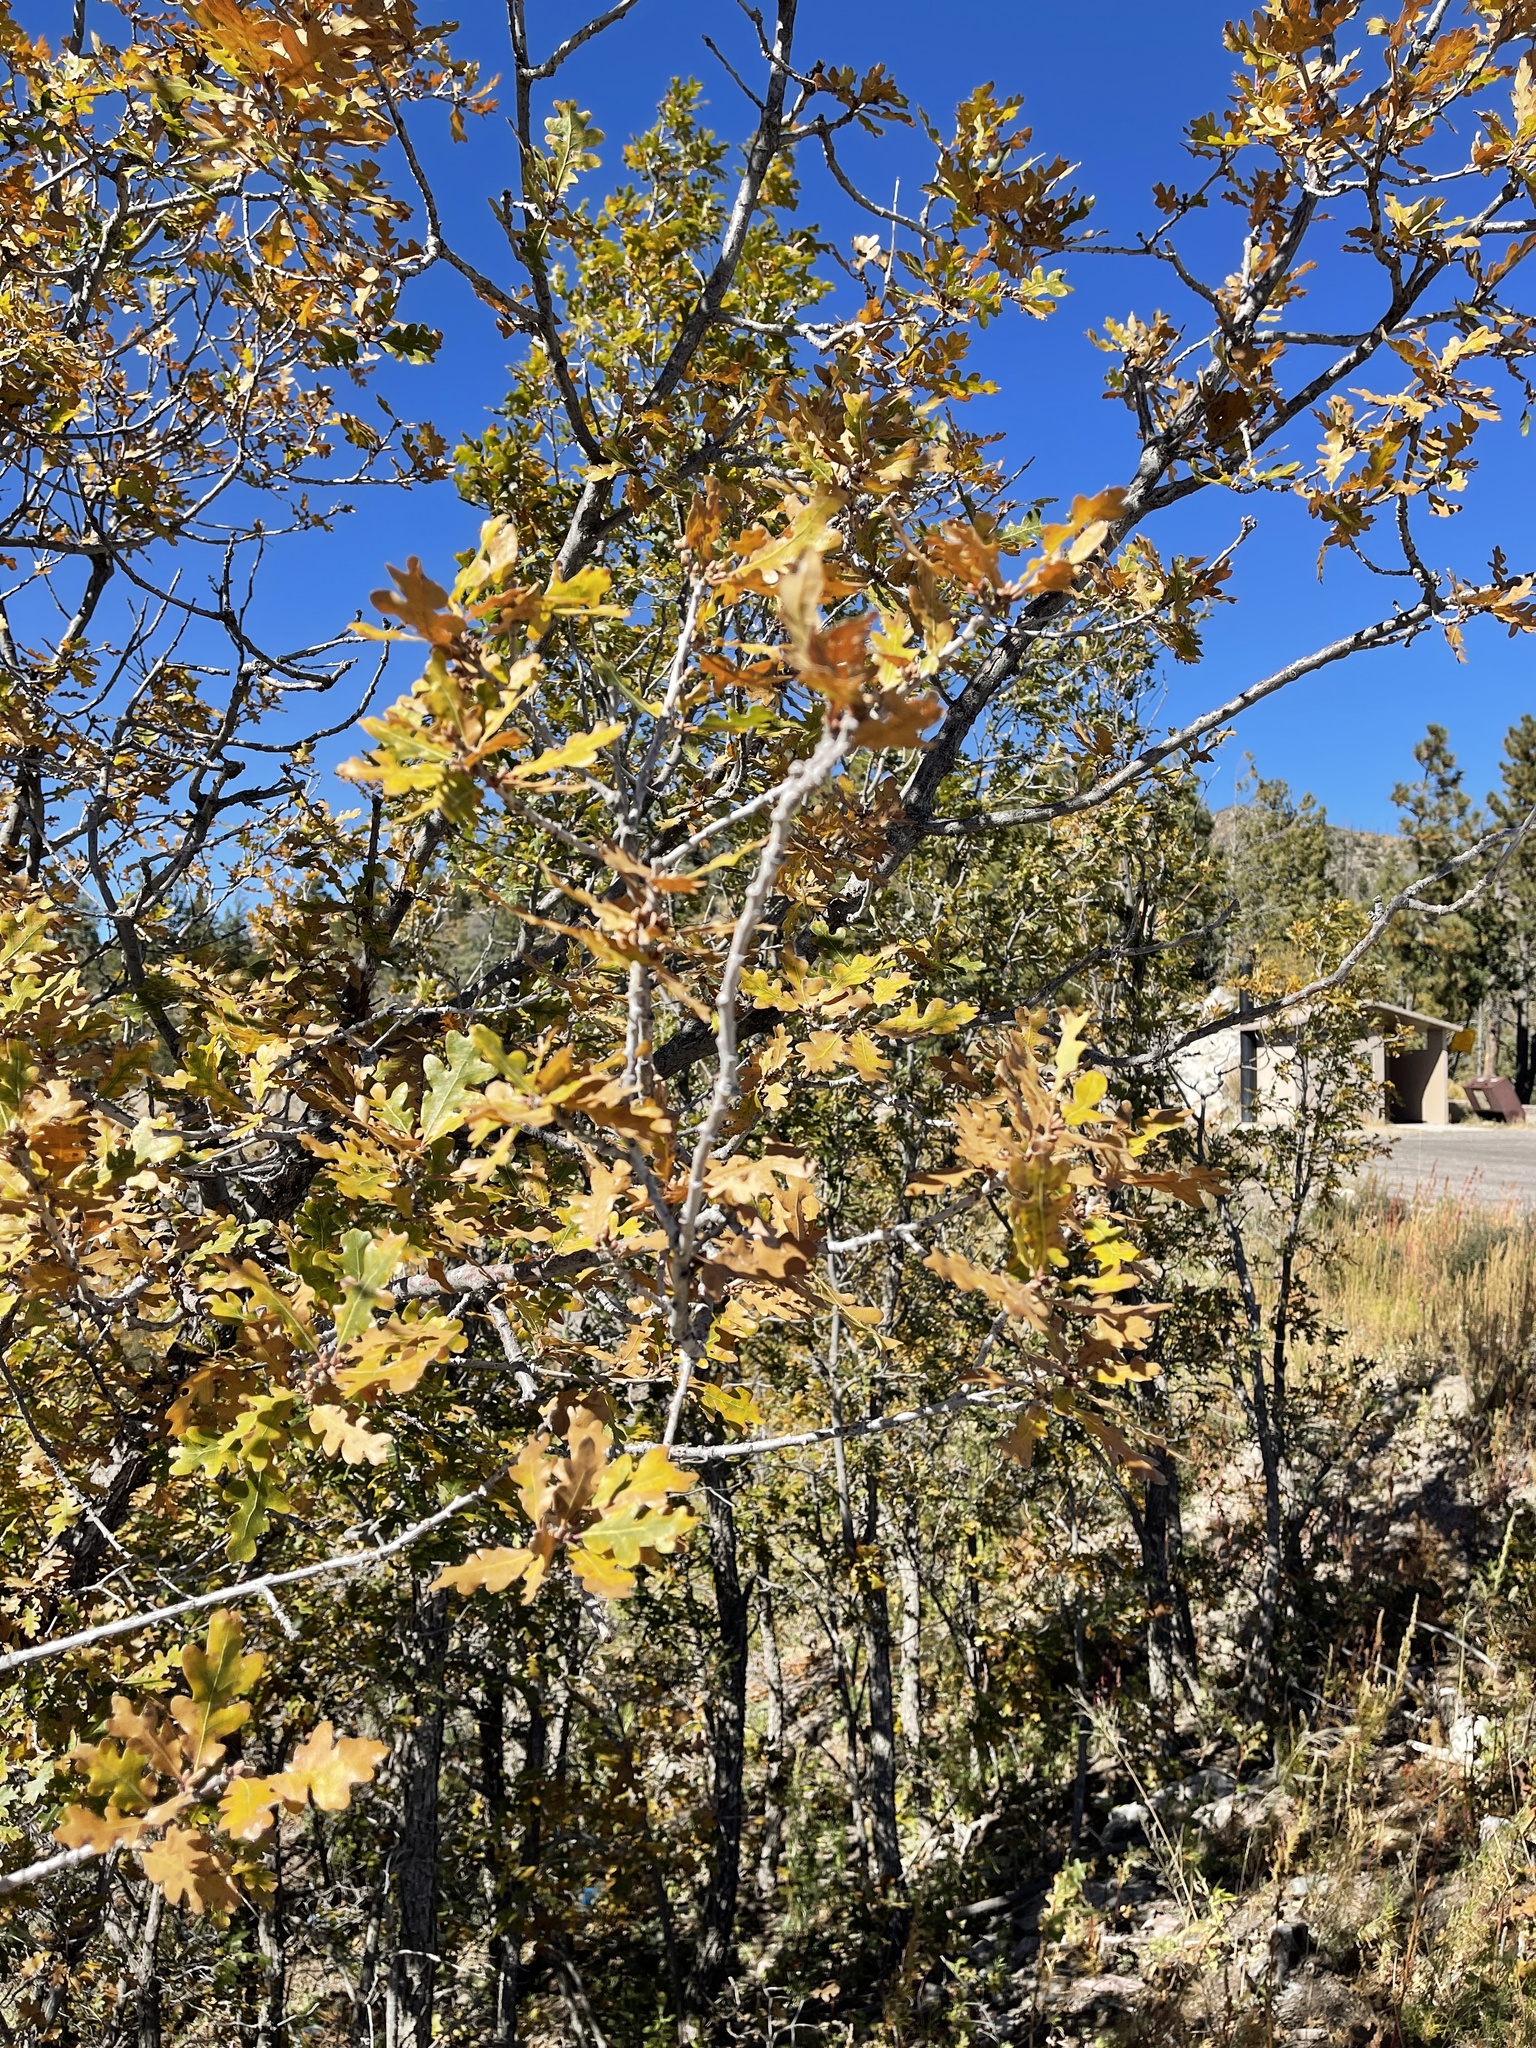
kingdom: Plantae
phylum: Tracheophyta
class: Magnoliopsida
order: Fagales
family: Fagaceae
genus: Quercus
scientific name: Quercus gambelii
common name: Gambel oak
